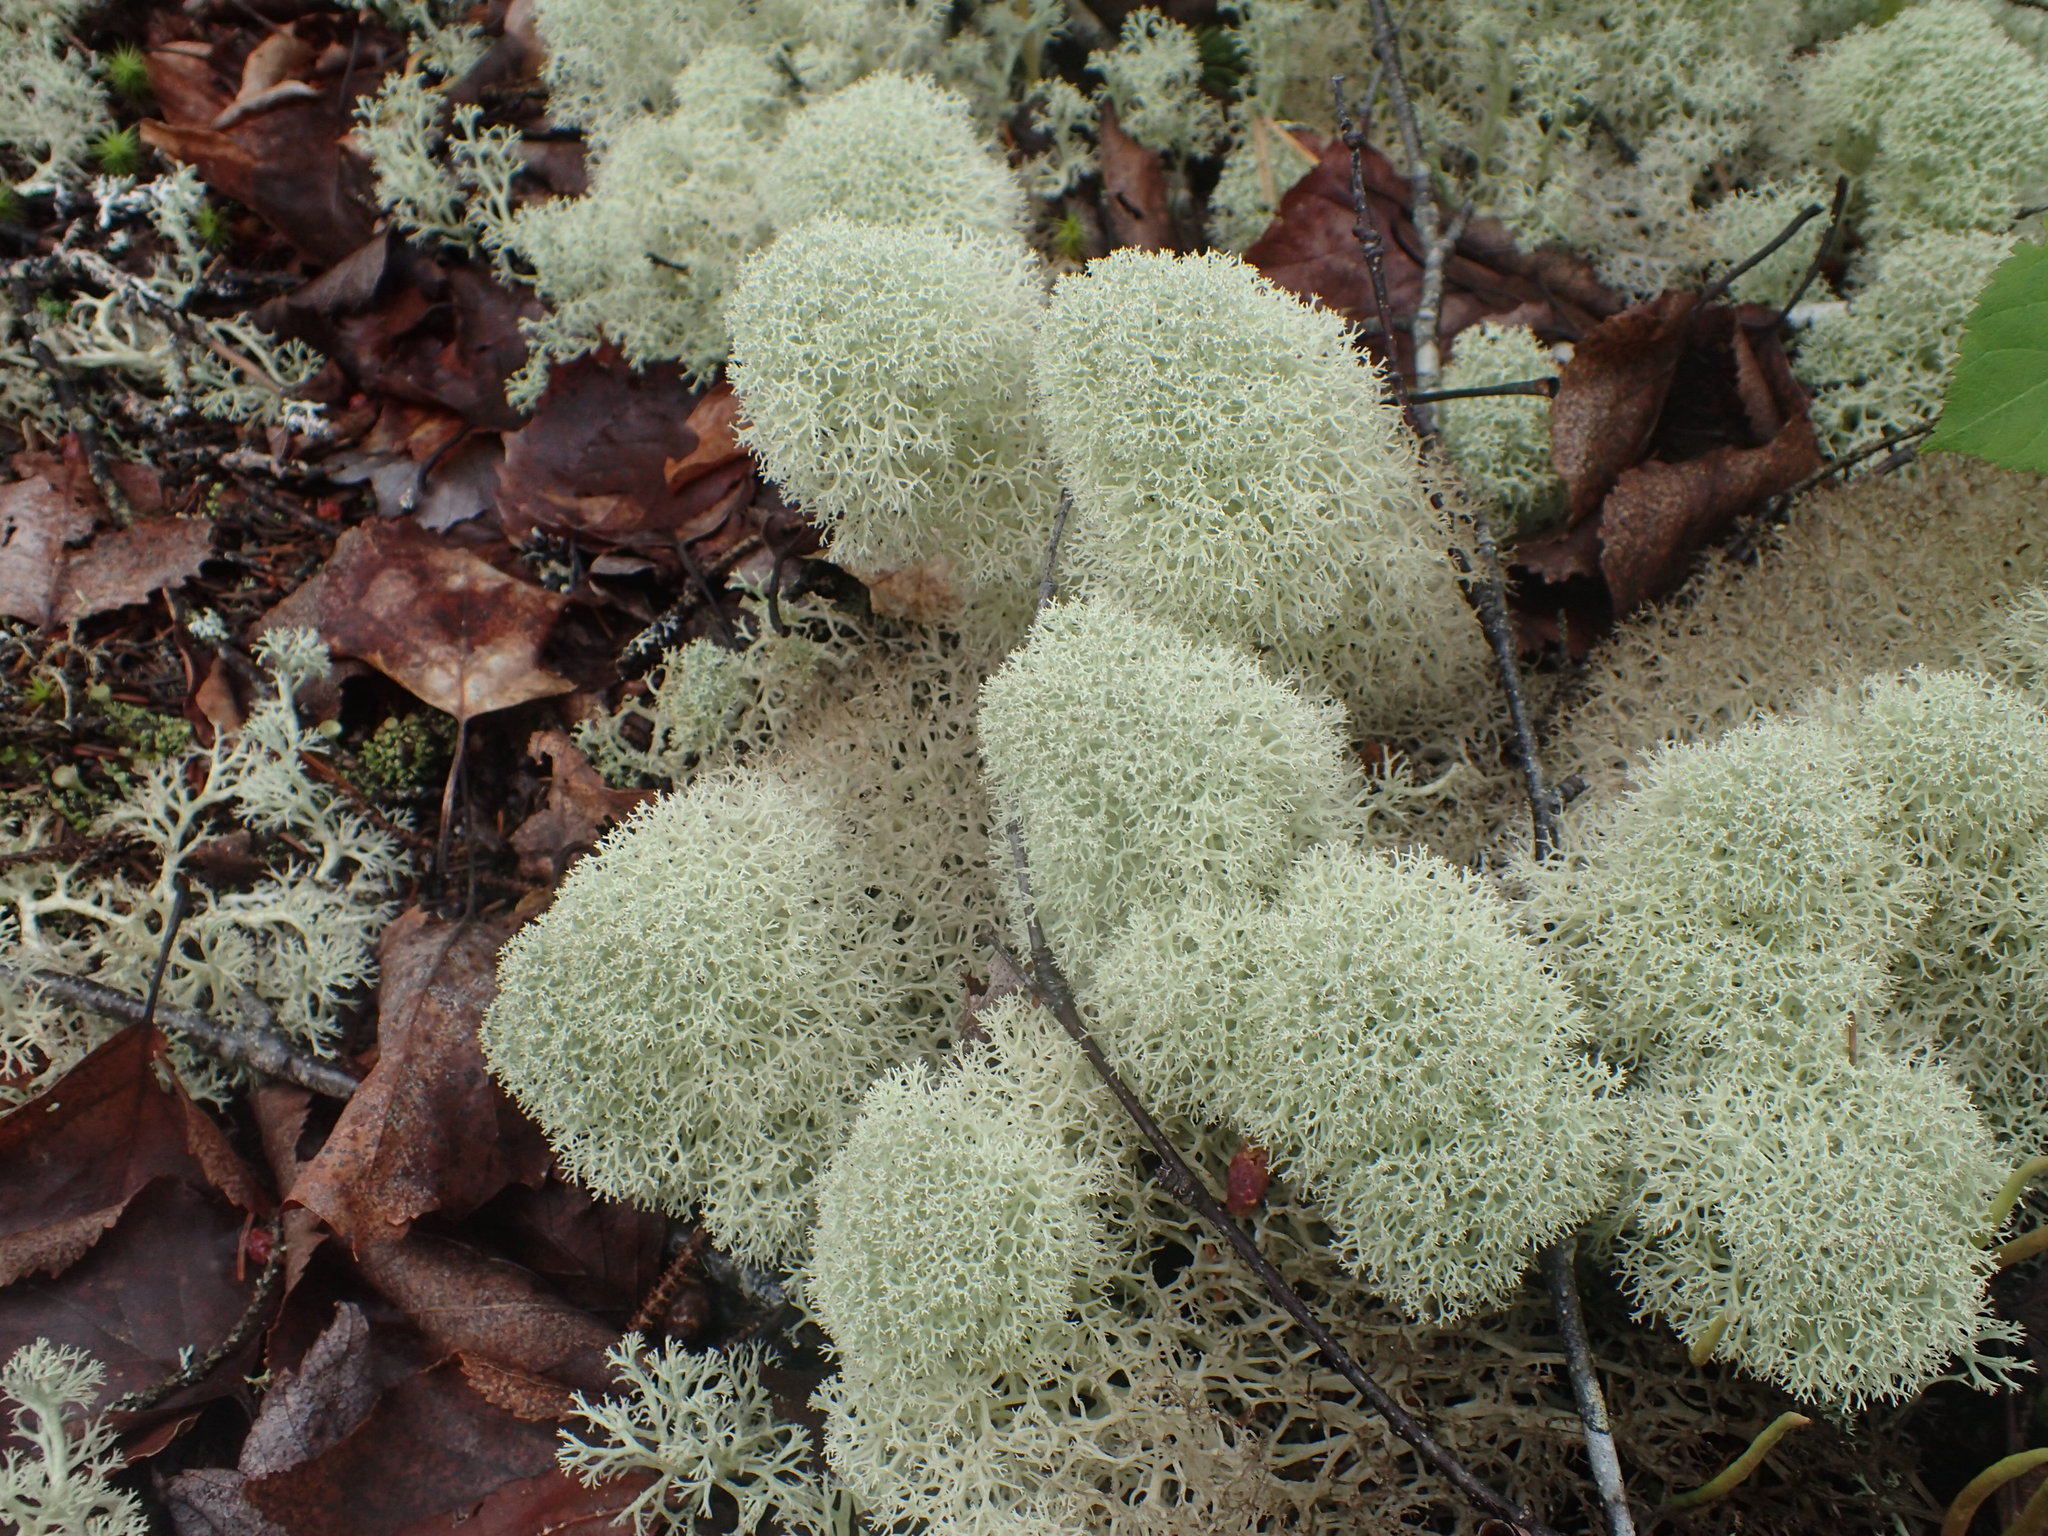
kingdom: Fungi
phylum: Ascomycota
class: Lecanoromycetes
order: Lecanorales
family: Cladoniaceae
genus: Cladonia
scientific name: Cladonia stellaris
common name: Star-tipped reindeer lichen
